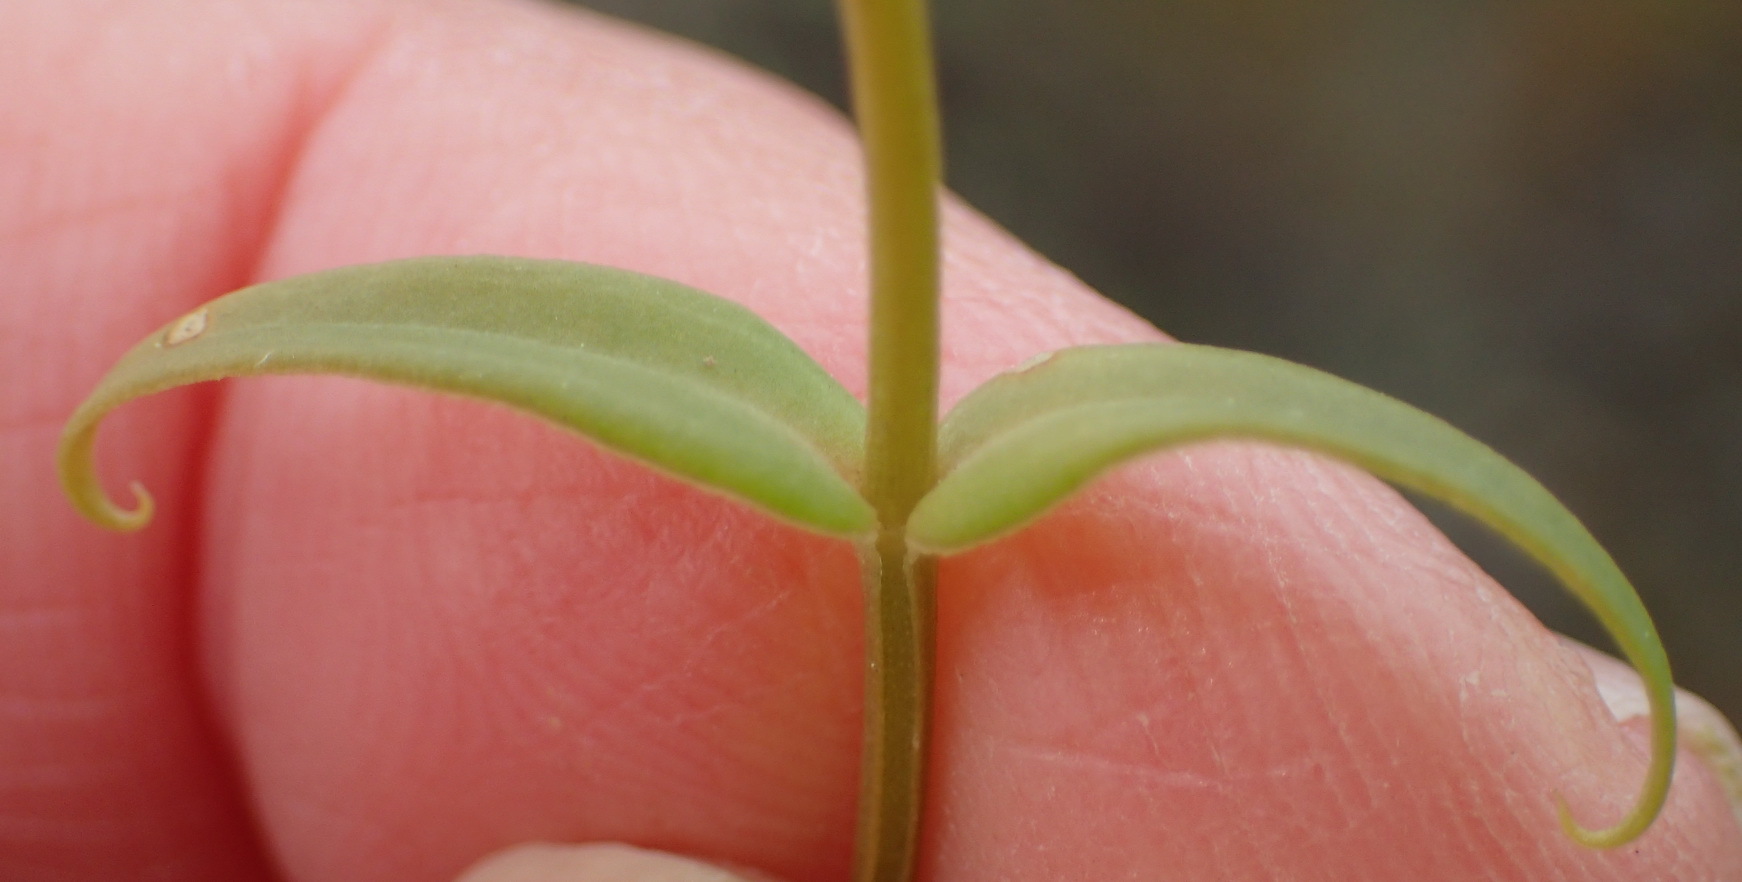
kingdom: Plantae
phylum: Tracheophyta
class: Magnoliopsida
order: Gentianales
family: Gentianaceae
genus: Chironia
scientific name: Chironia tetragona
